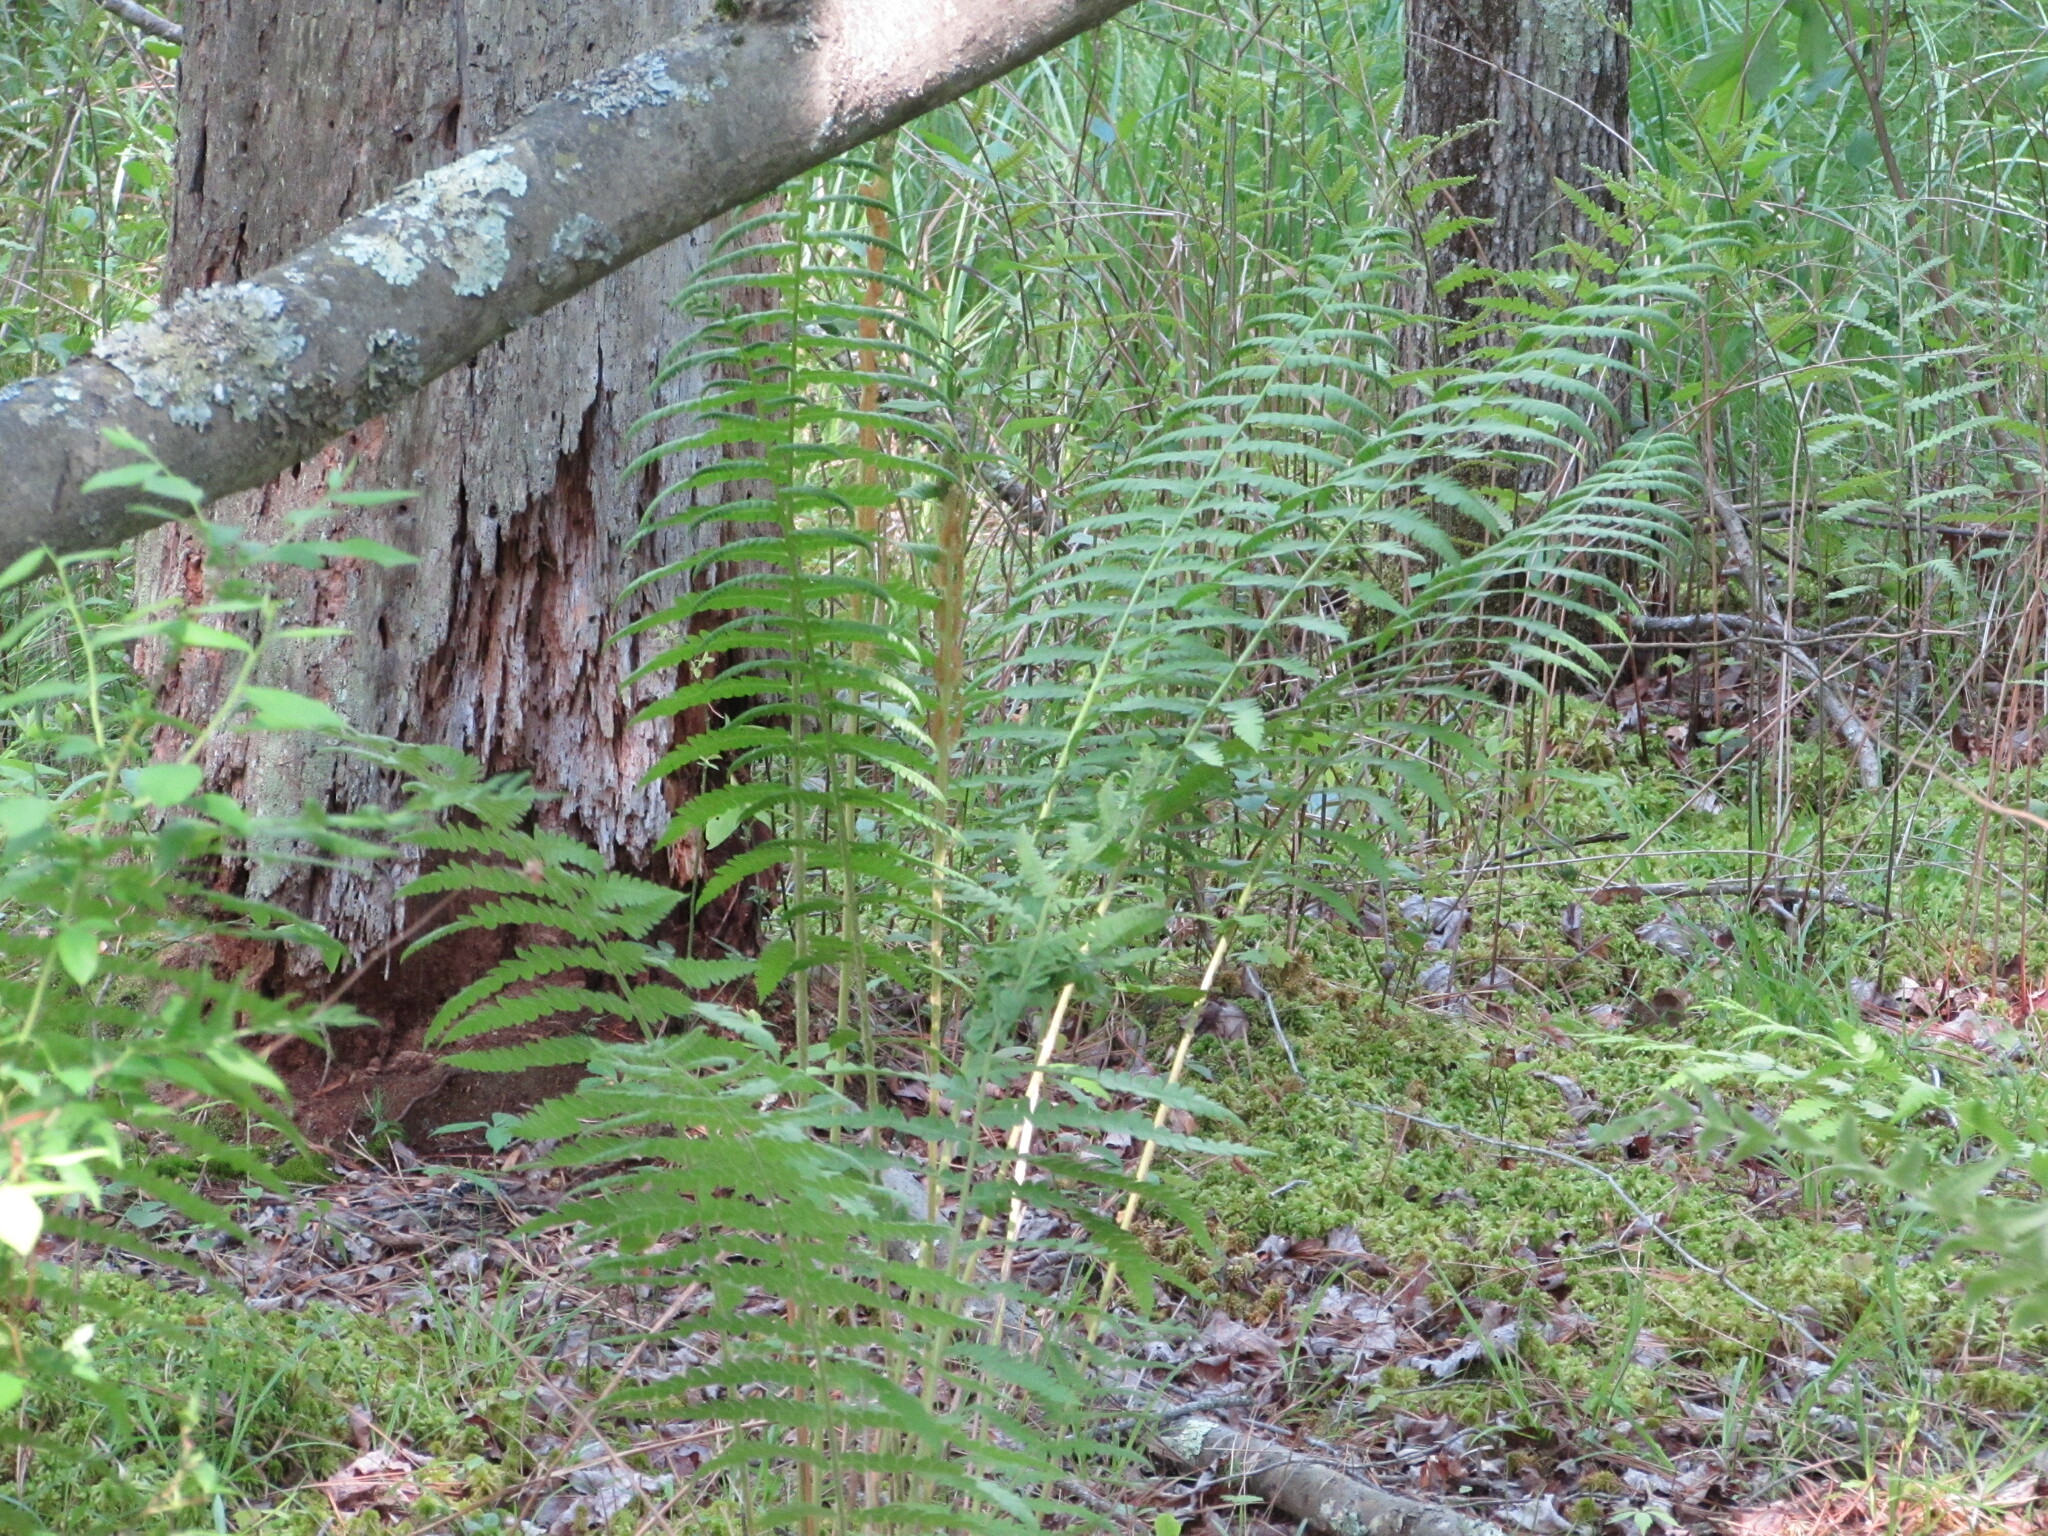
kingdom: Plantae
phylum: Tracheophyta
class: Polypodiopsida
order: Osmundales
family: Osmundaceae
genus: Osmundastrum
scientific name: Osmundastrum cinnamomeum
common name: Cinnamon fern
